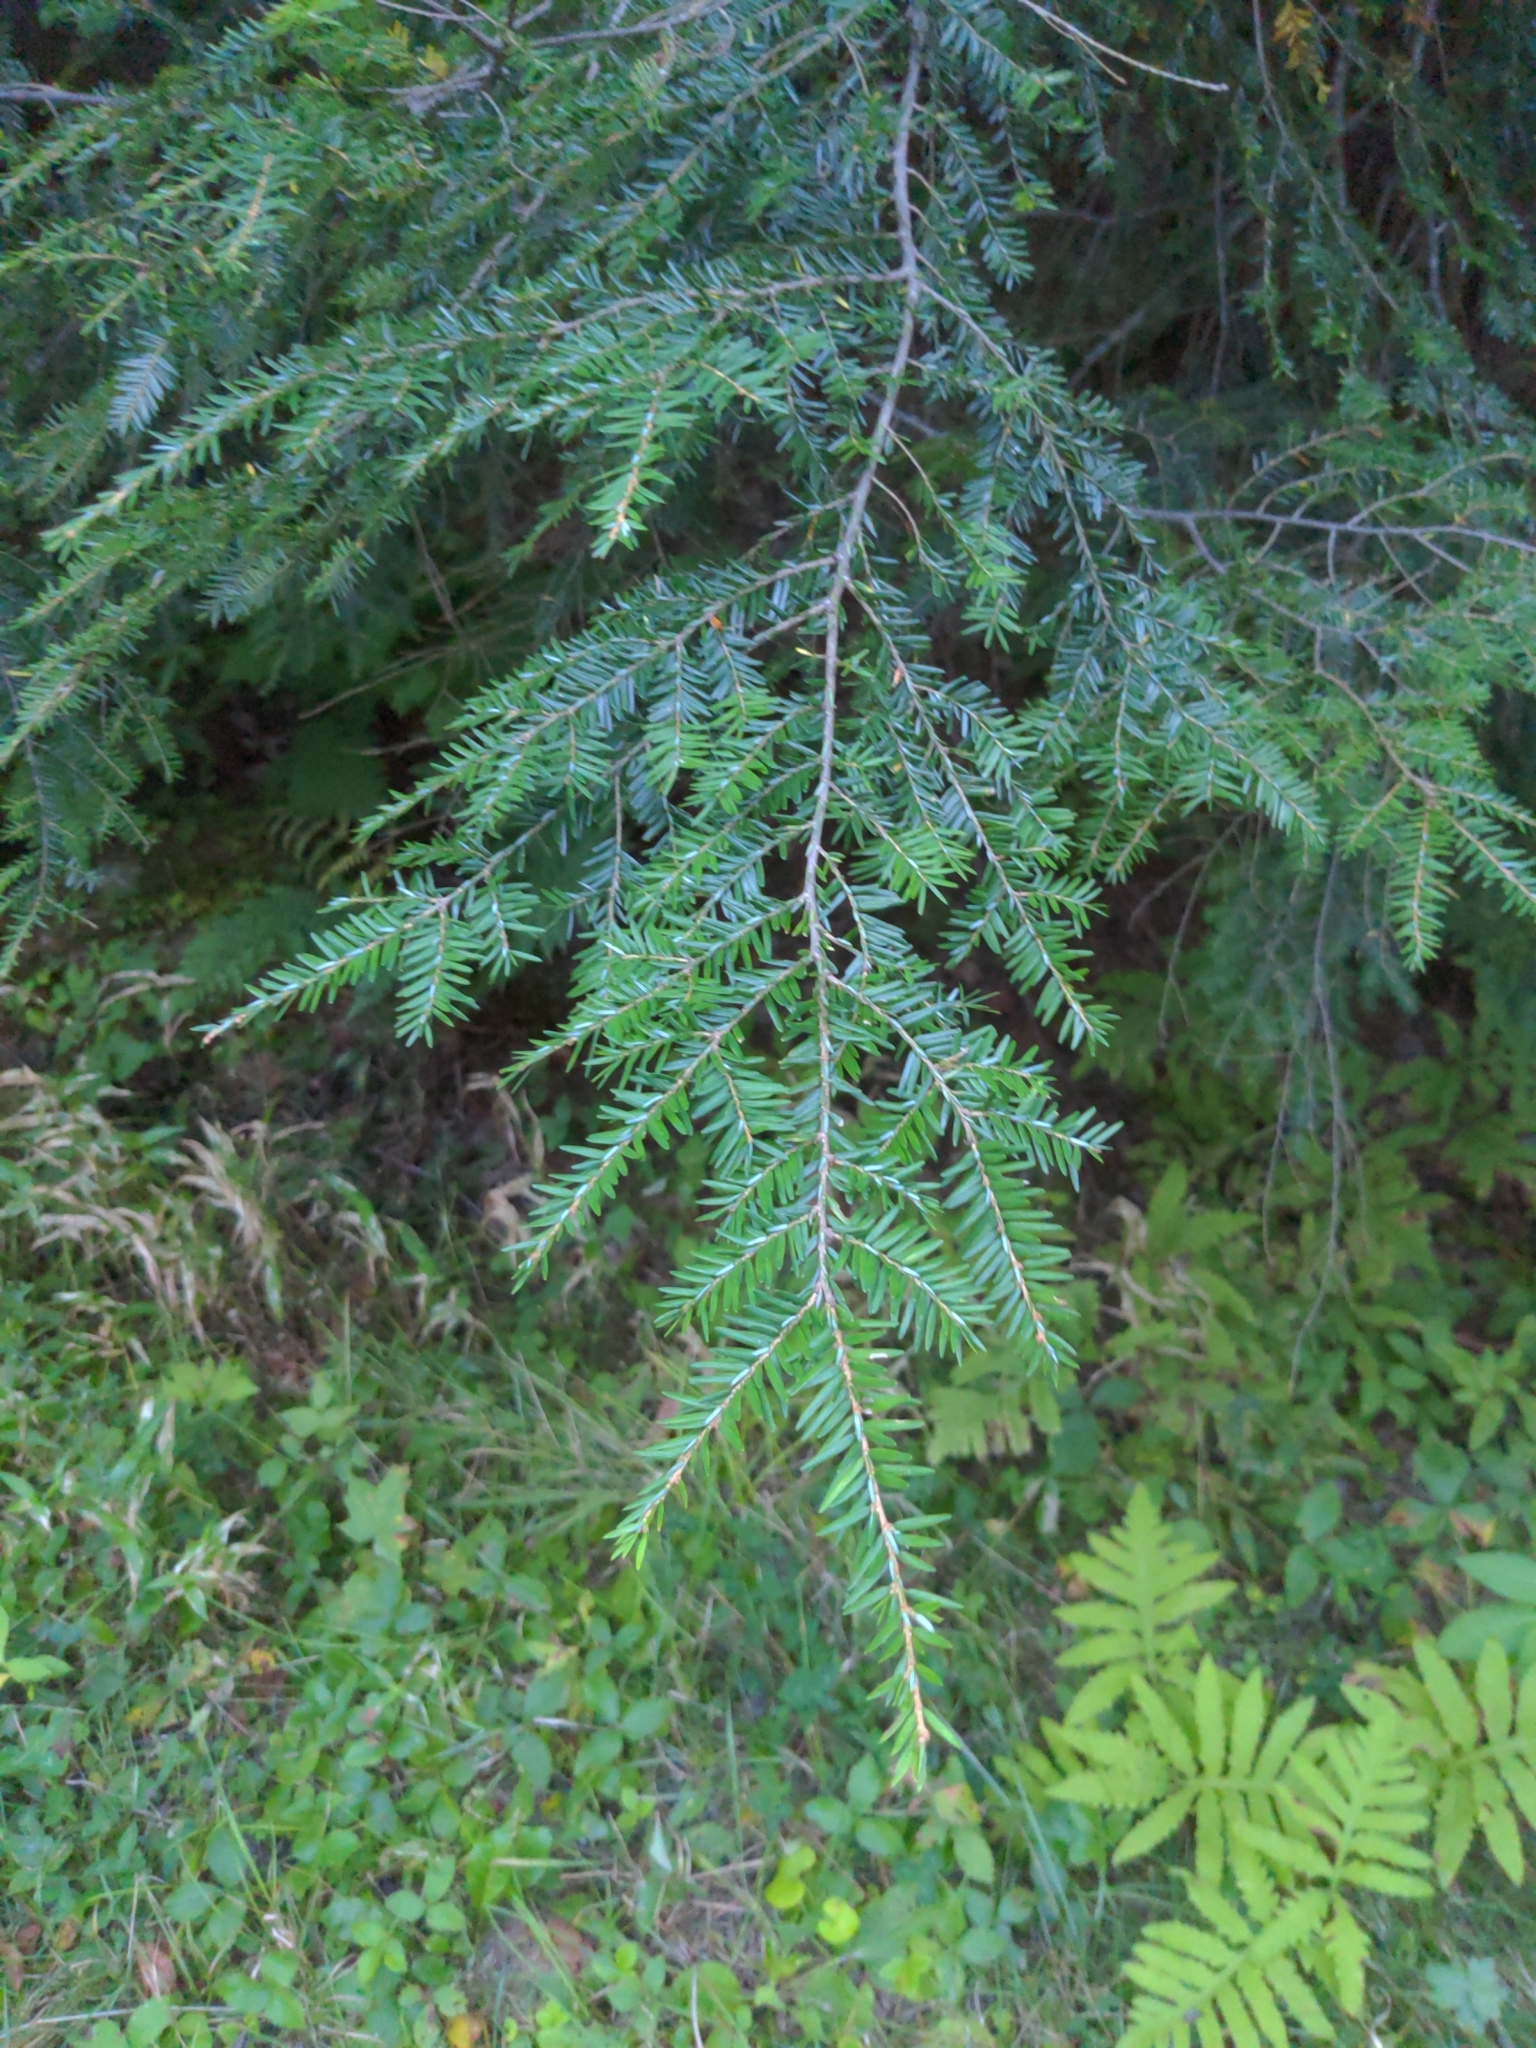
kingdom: Plantae
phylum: Tracheophyta
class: Pinopsida
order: Pinales
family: Pinaceae
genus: Tsuga
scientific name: Tsuga canadensis
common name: Eastern hemlock
